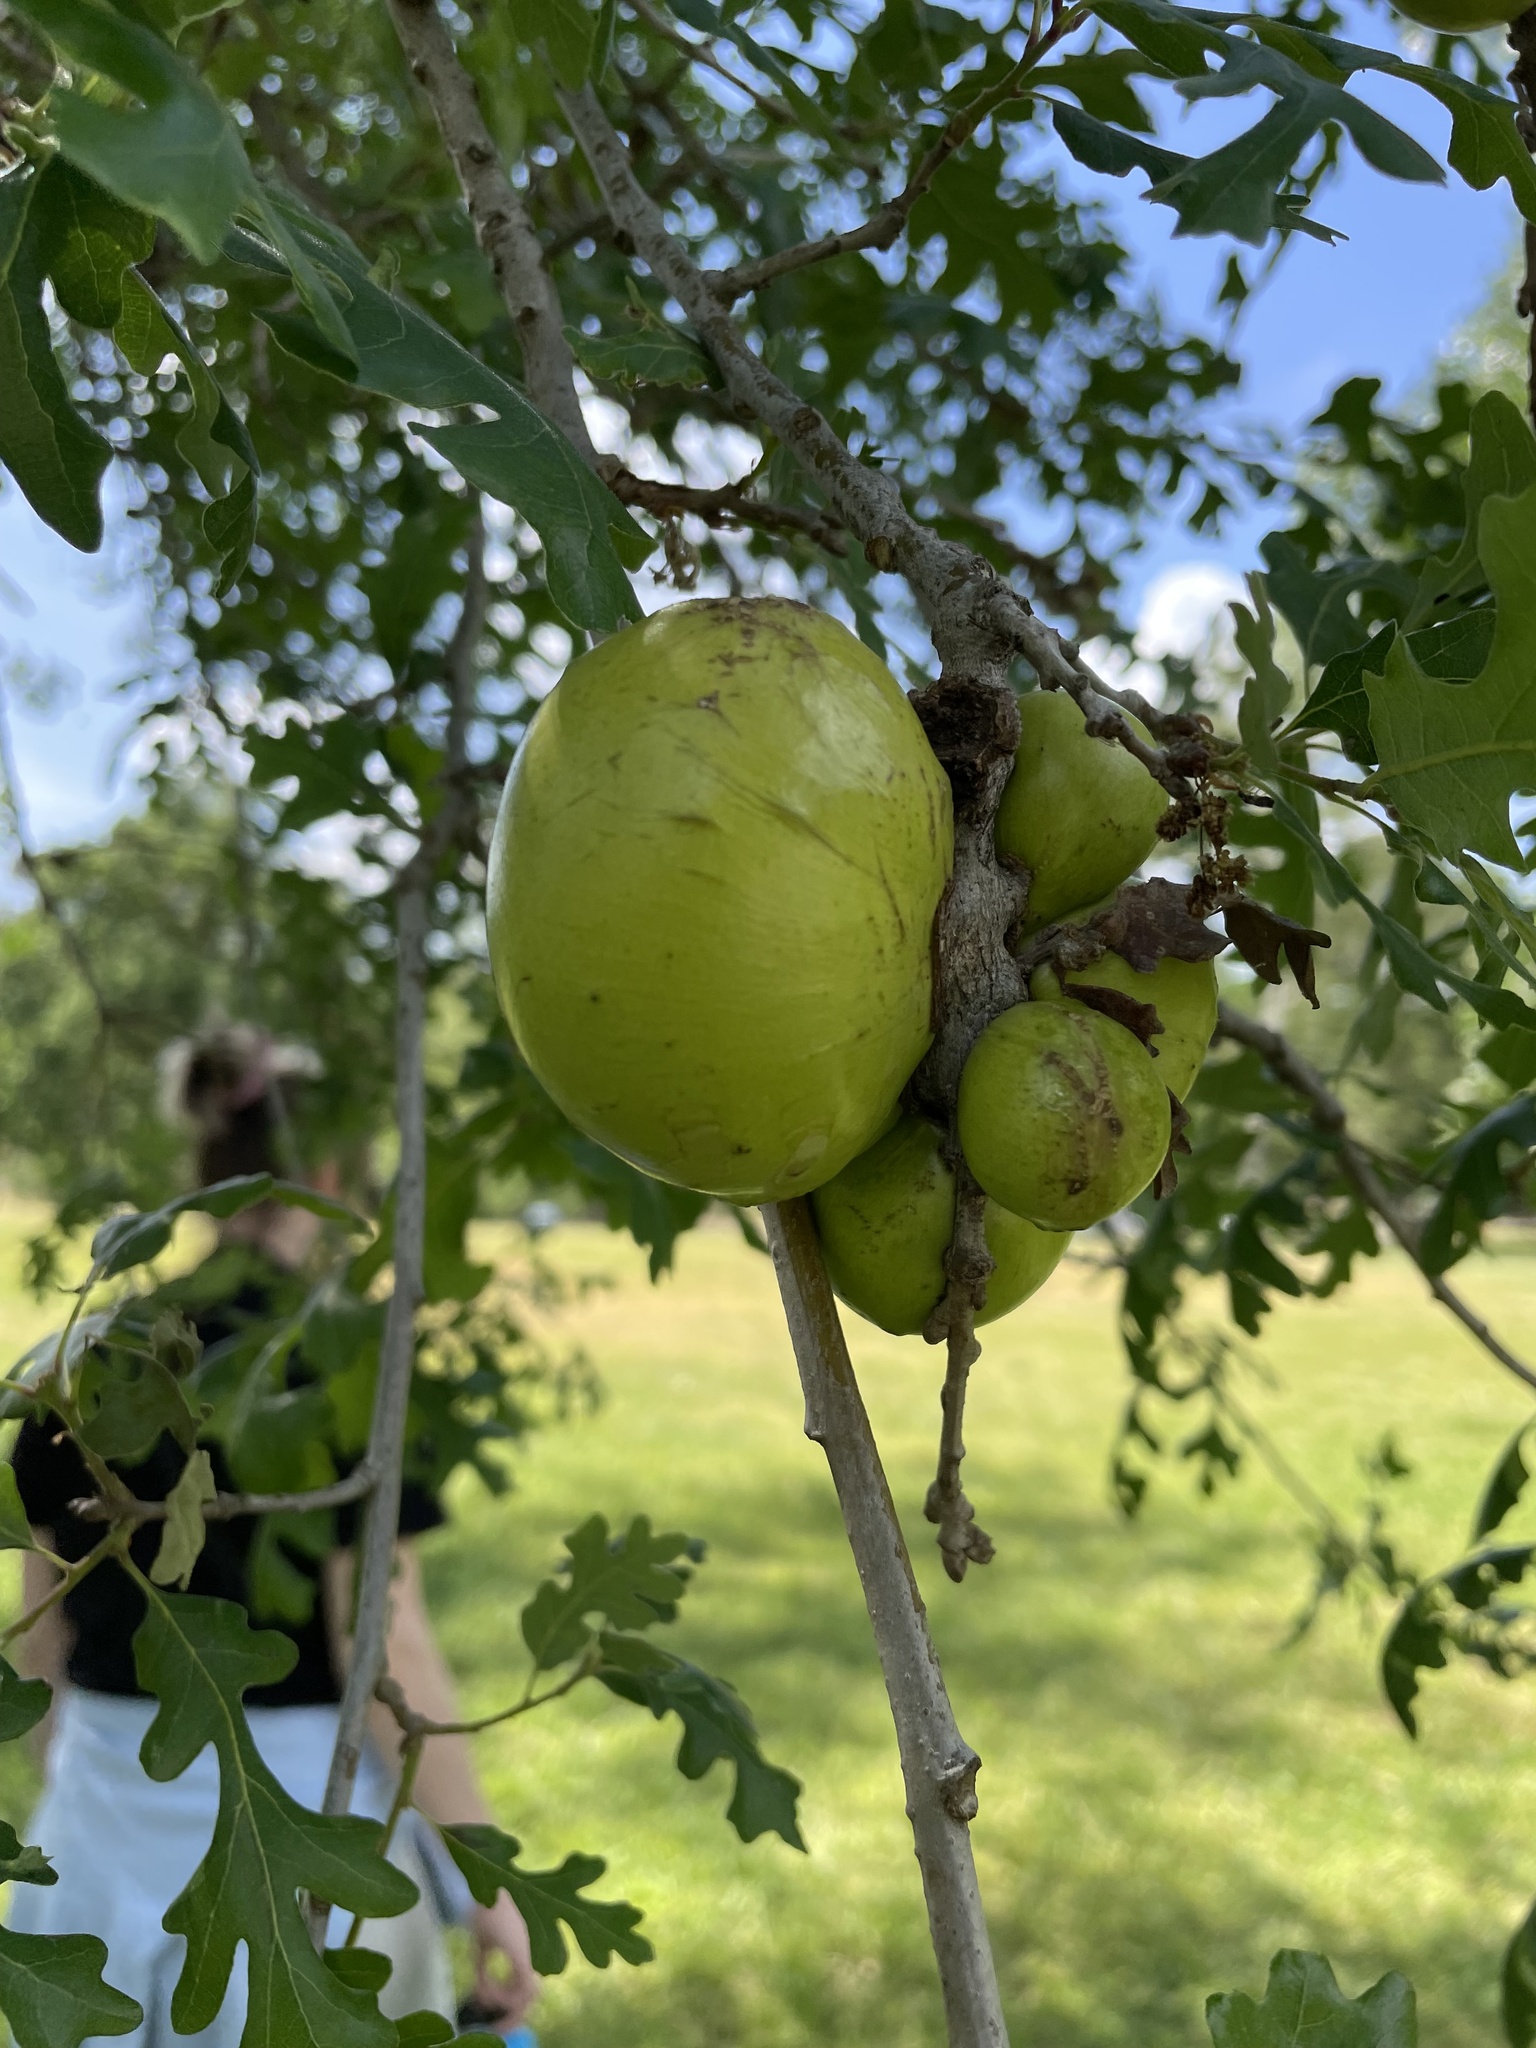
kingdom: Animalia
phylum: Arthropoda
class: Insecta
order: Hymenoptera
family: Cynipidae
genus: Andricus
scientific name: Andricus quercuscalifornicus
